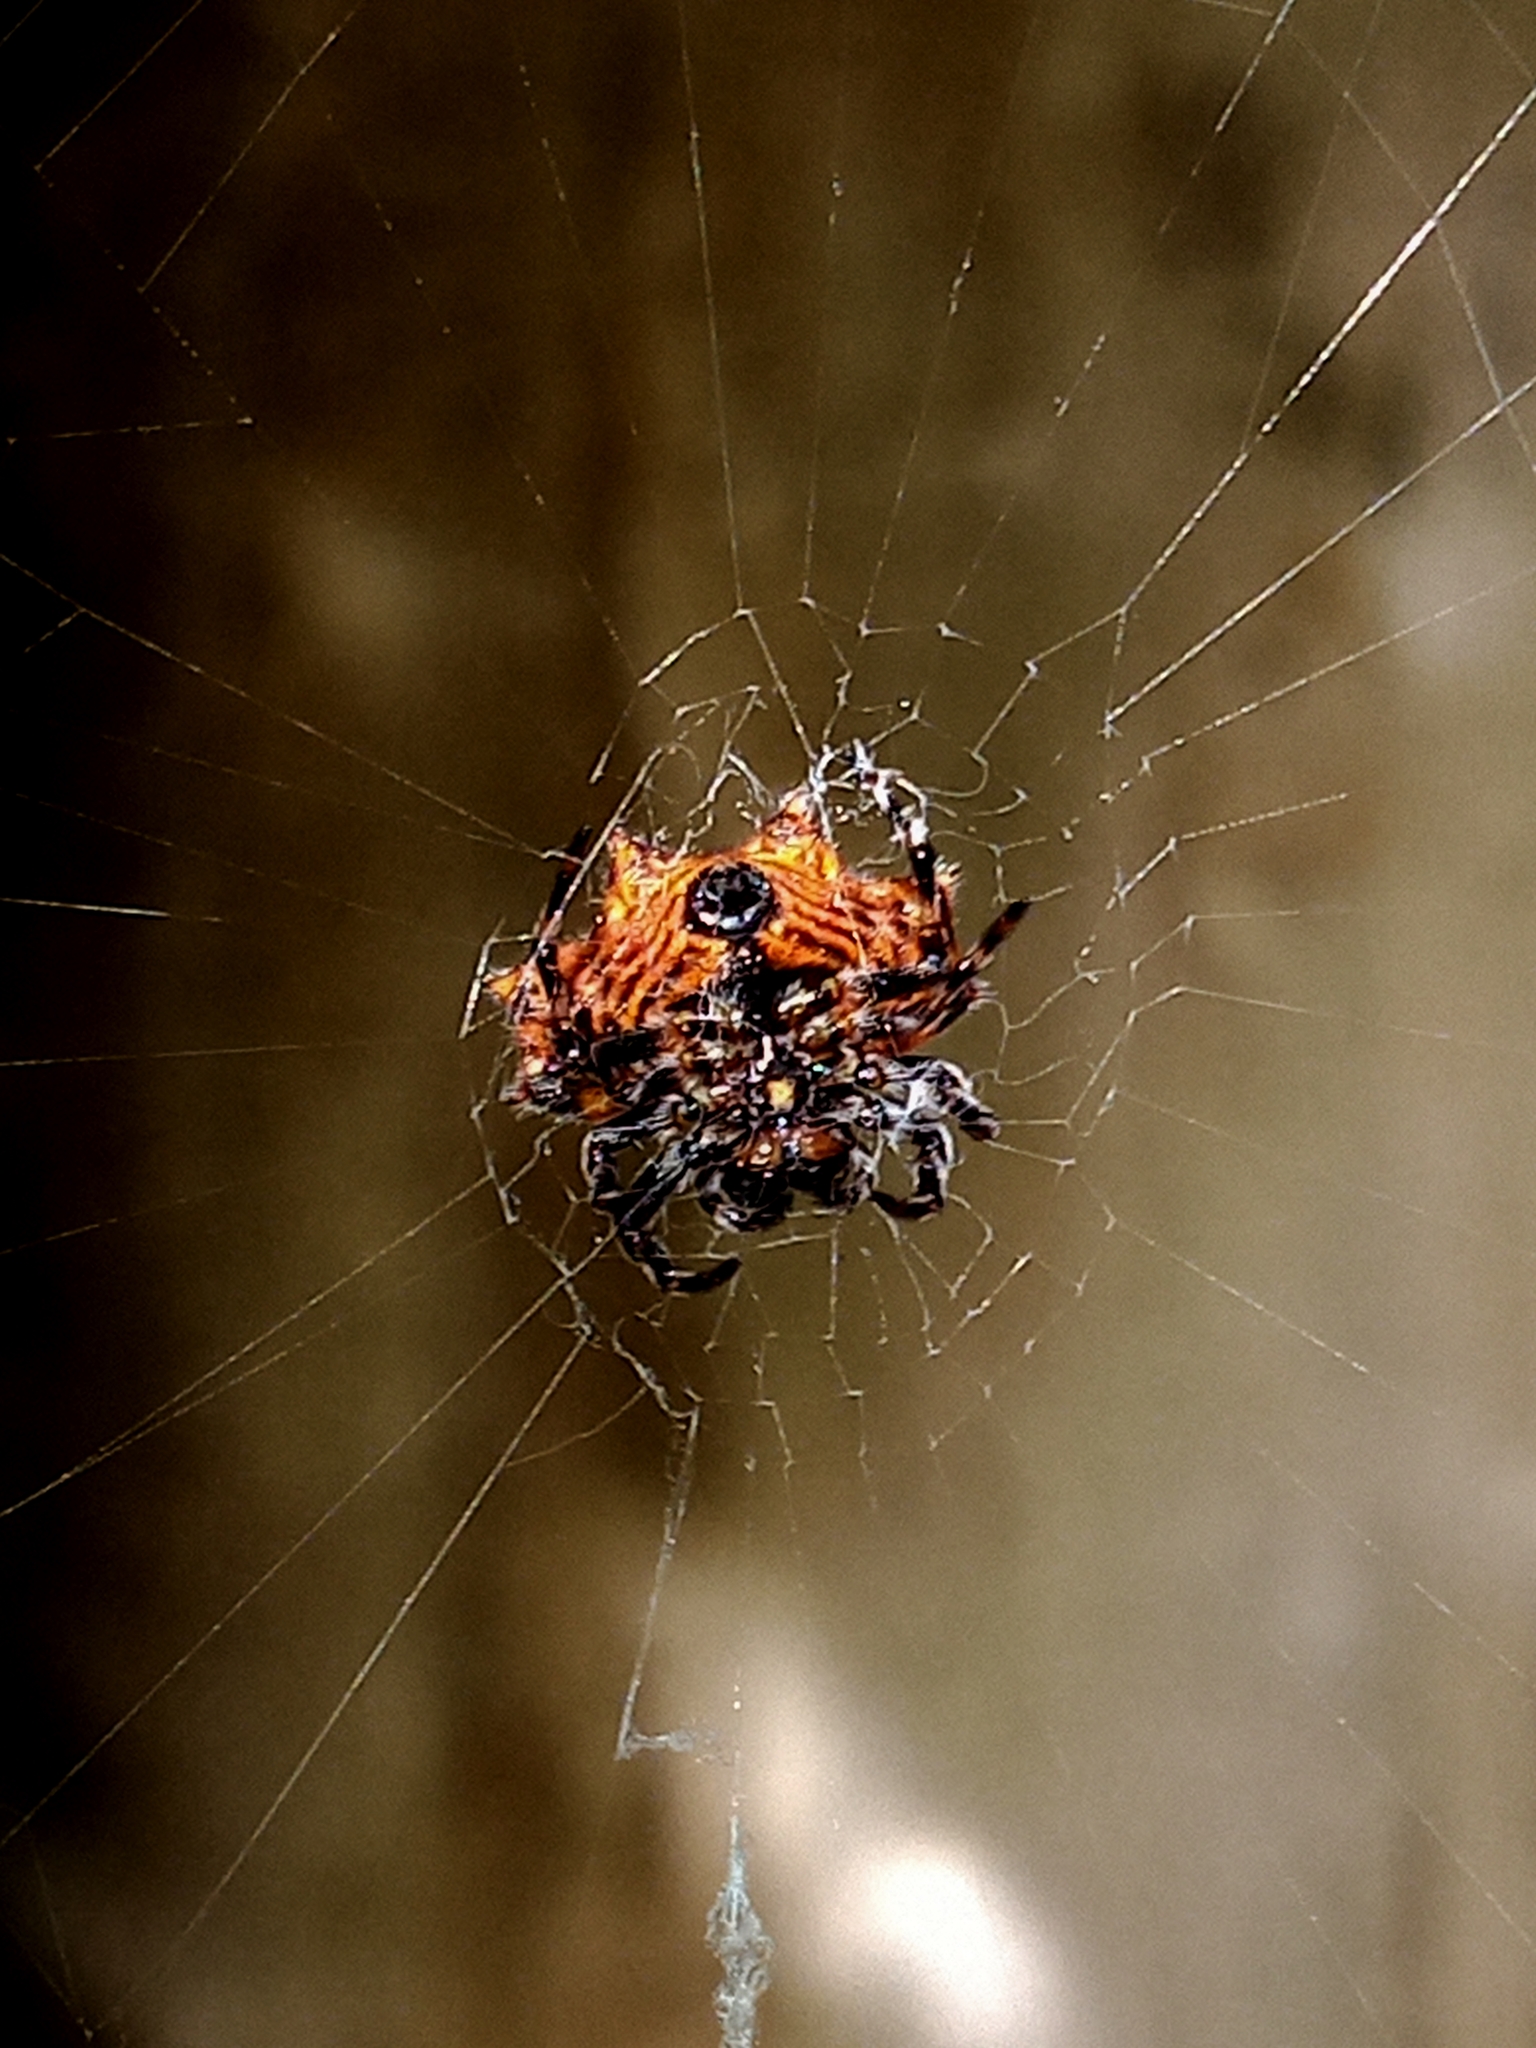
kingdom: Animalia
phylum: Arthropoda
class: Arachnida
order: Araneae
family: Araneidae
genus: Gasteracantha
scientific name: Gasteracantha cancriformis
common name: Orb weavers
